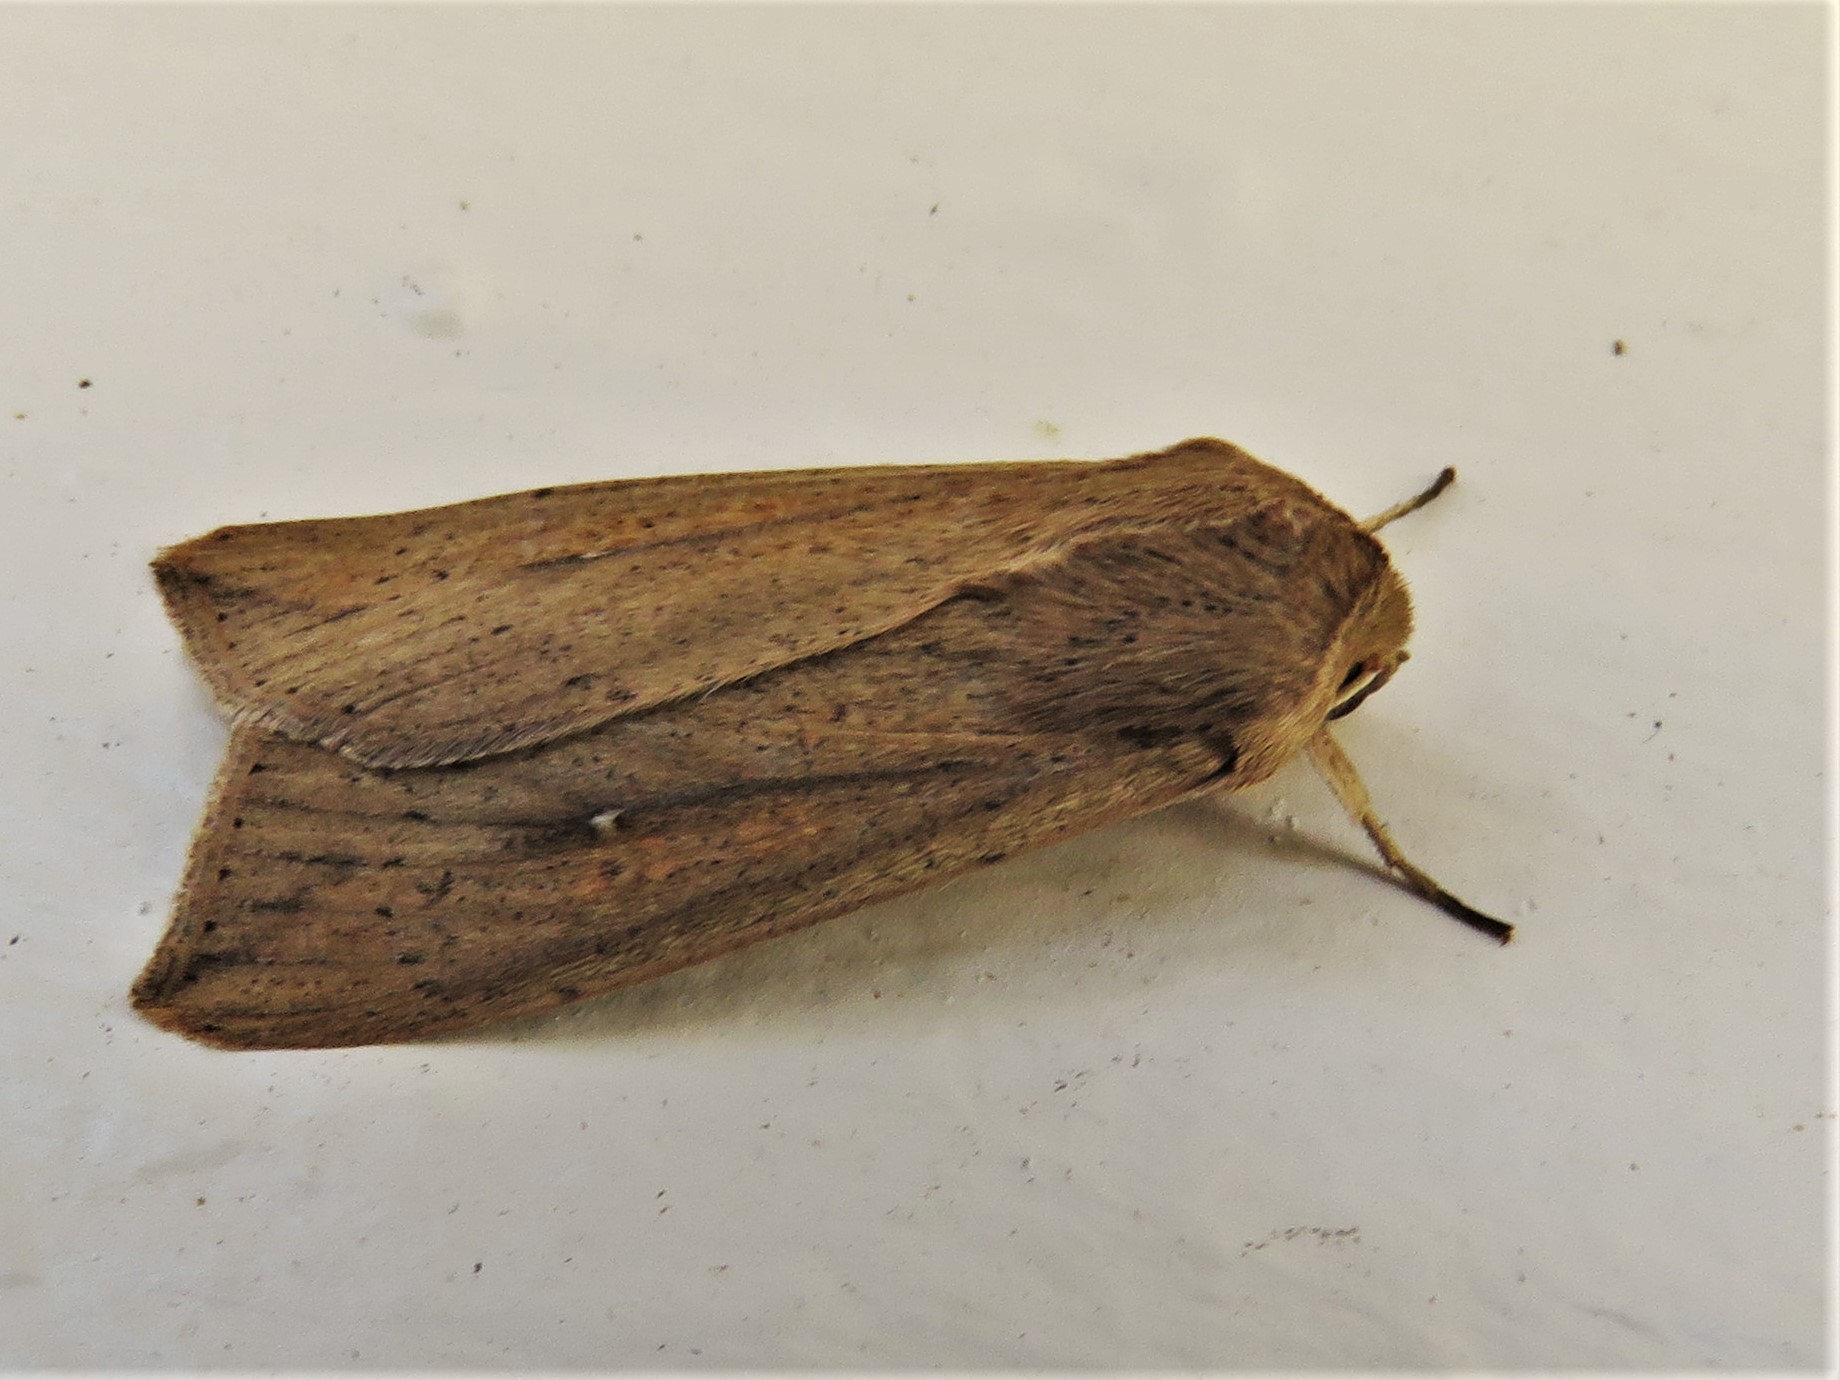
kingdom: Animalia
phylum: Arthropoda
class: Insecta
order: Lepidoptera
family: Noctuidae
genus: Mythimna
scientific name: Mythimna unipuncta
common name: White-speck
